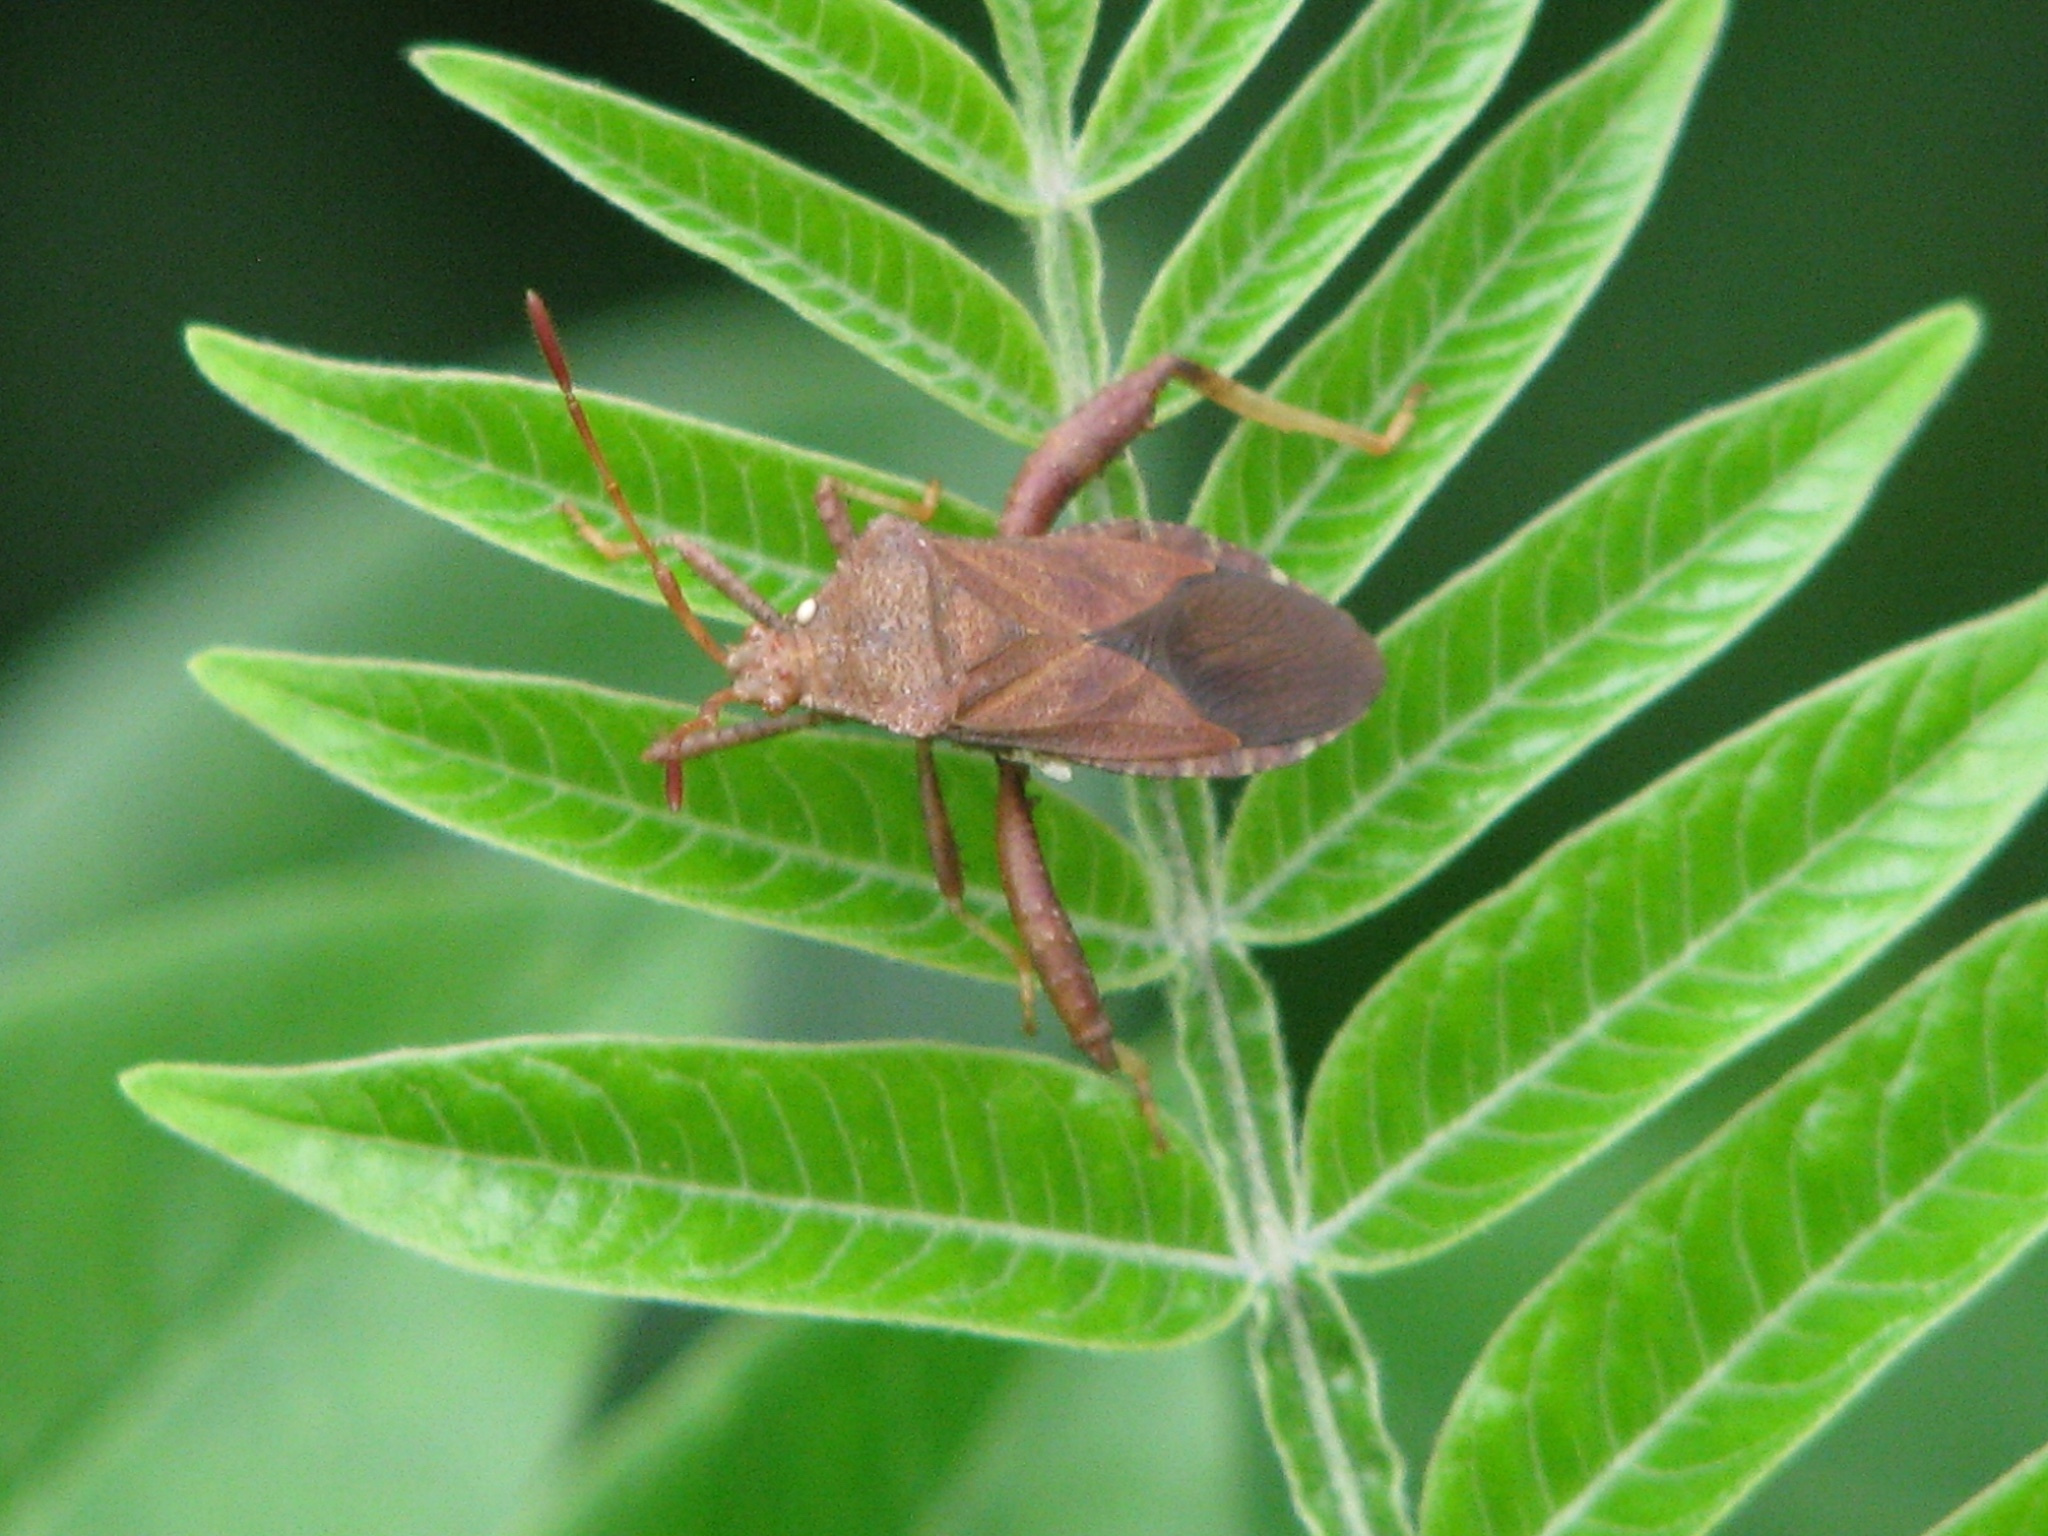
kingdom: Animalia
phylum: Arthropoda
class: Insecta
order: Hemiptera
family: Coreidae
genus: Euthochtha
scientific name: Euthochtha galeator
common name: Helmeted squash bug
